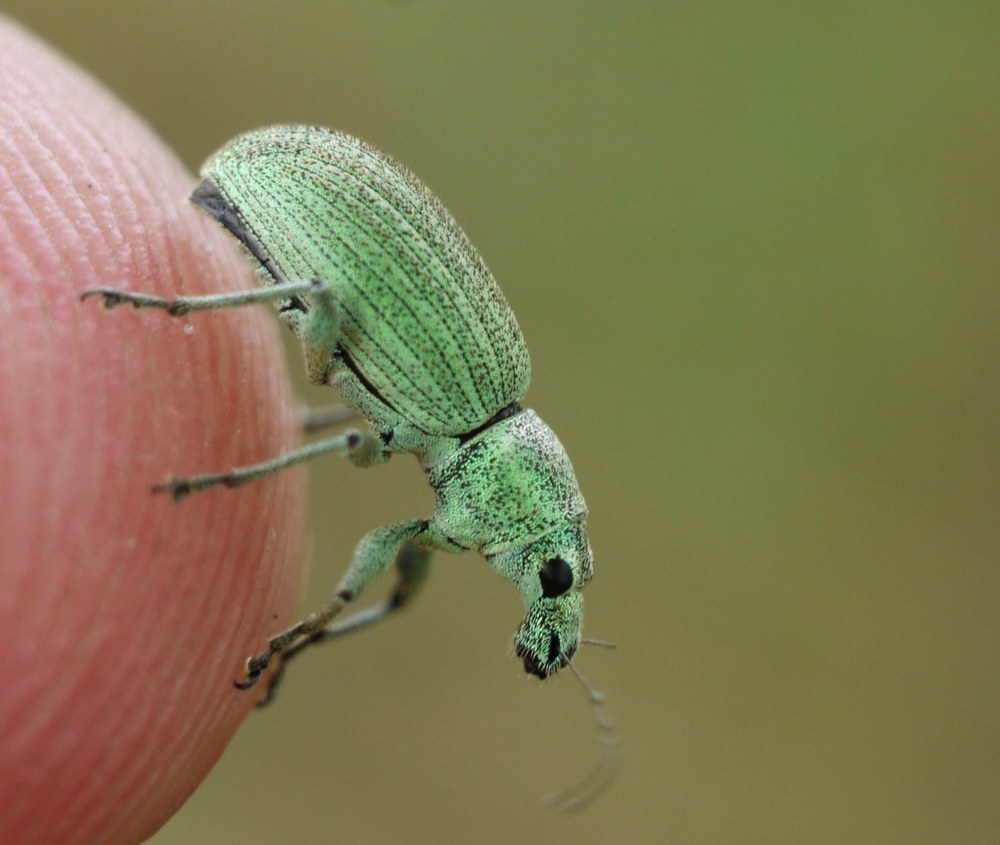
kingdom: Animalia
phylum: Arthropoda
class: Insecta
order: Coleoptera
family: Curculionidae
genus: Eusomus
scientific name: Eusomus ovulum
